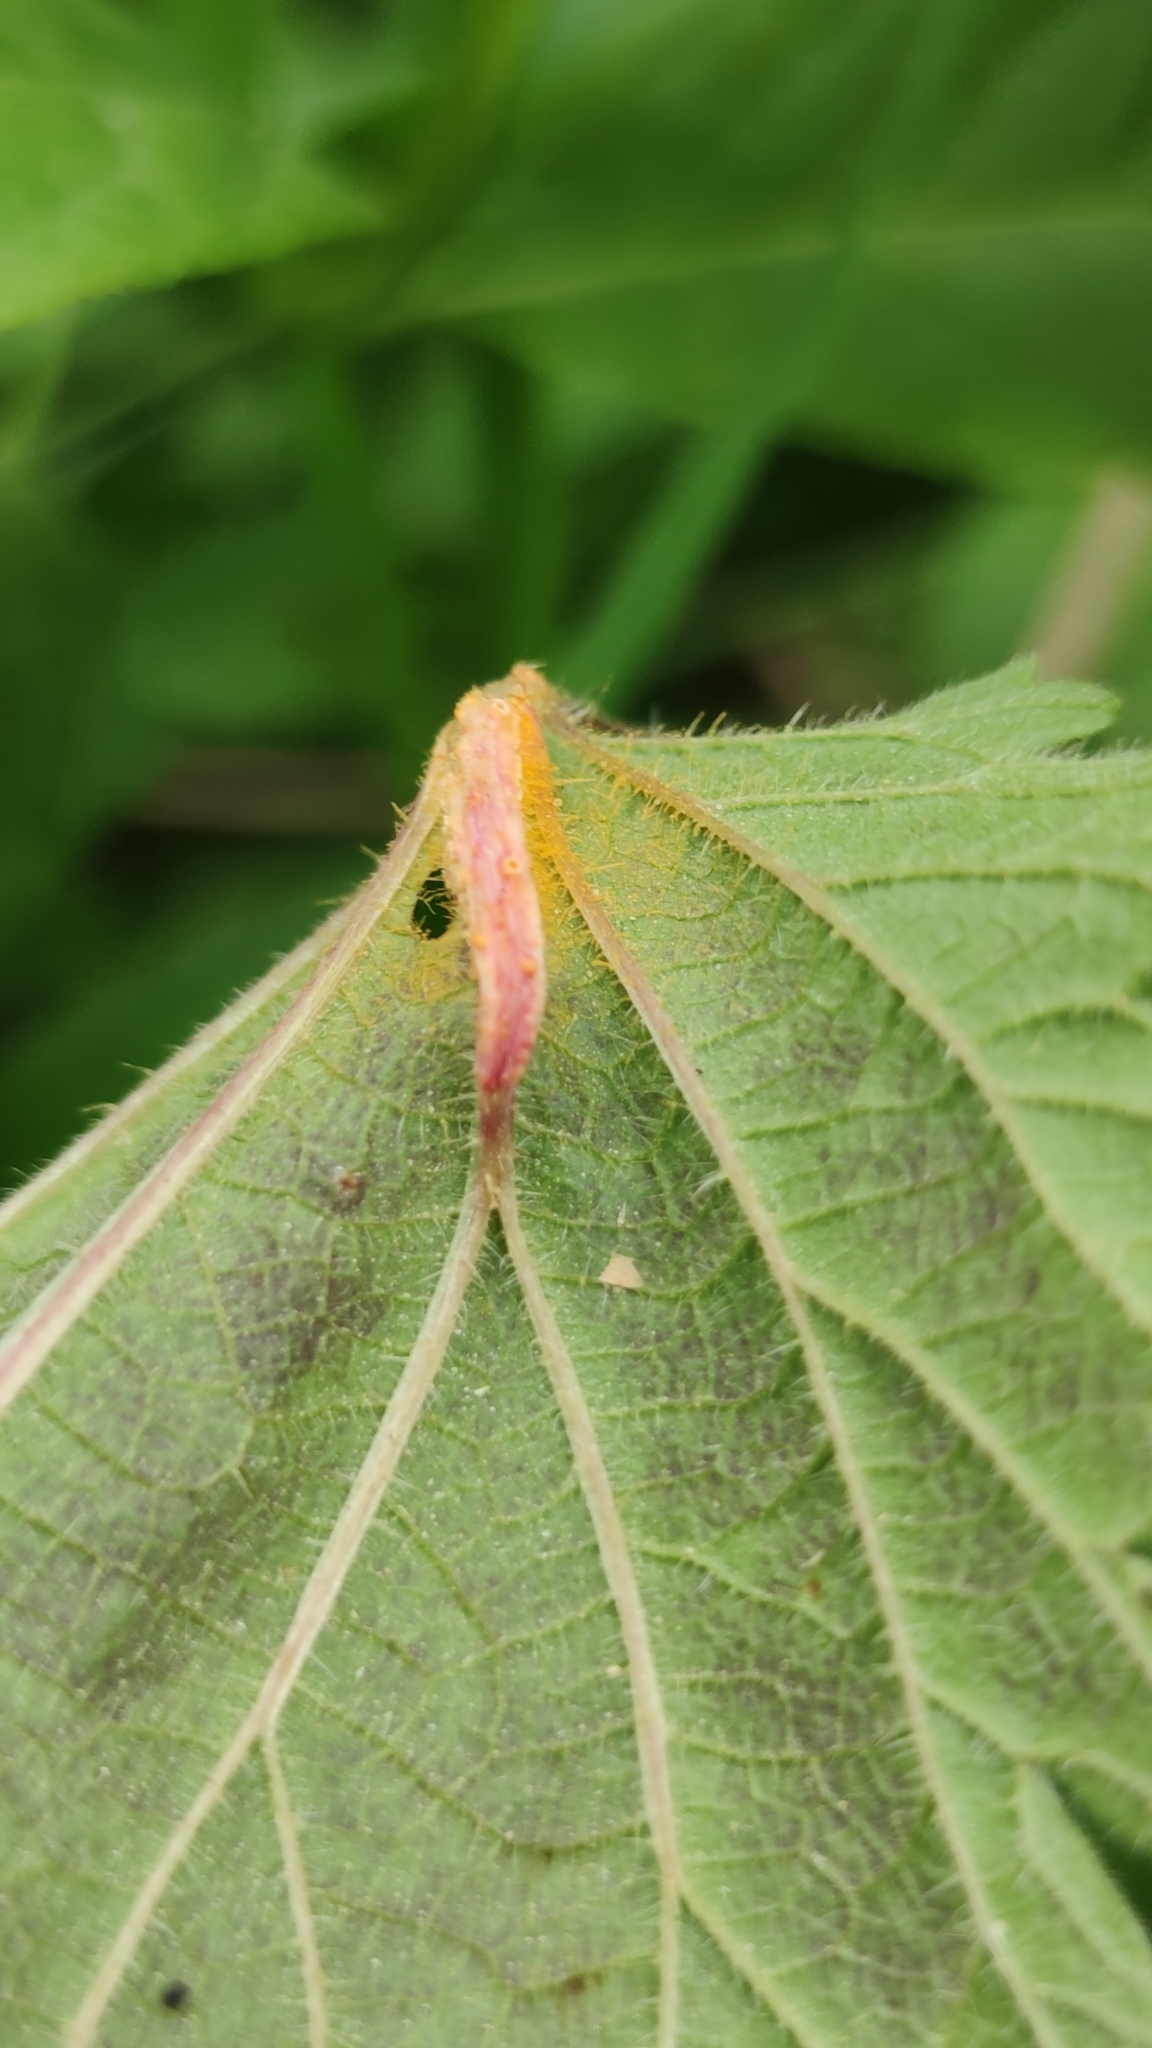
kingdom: Fungi
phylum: Basidiomycota
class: Pucciniomycetes
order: Pucciniales
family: Pucciniaceae
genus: Puccinia
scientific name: Puccinia urticata
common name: Nettle clustercup rust fungus
